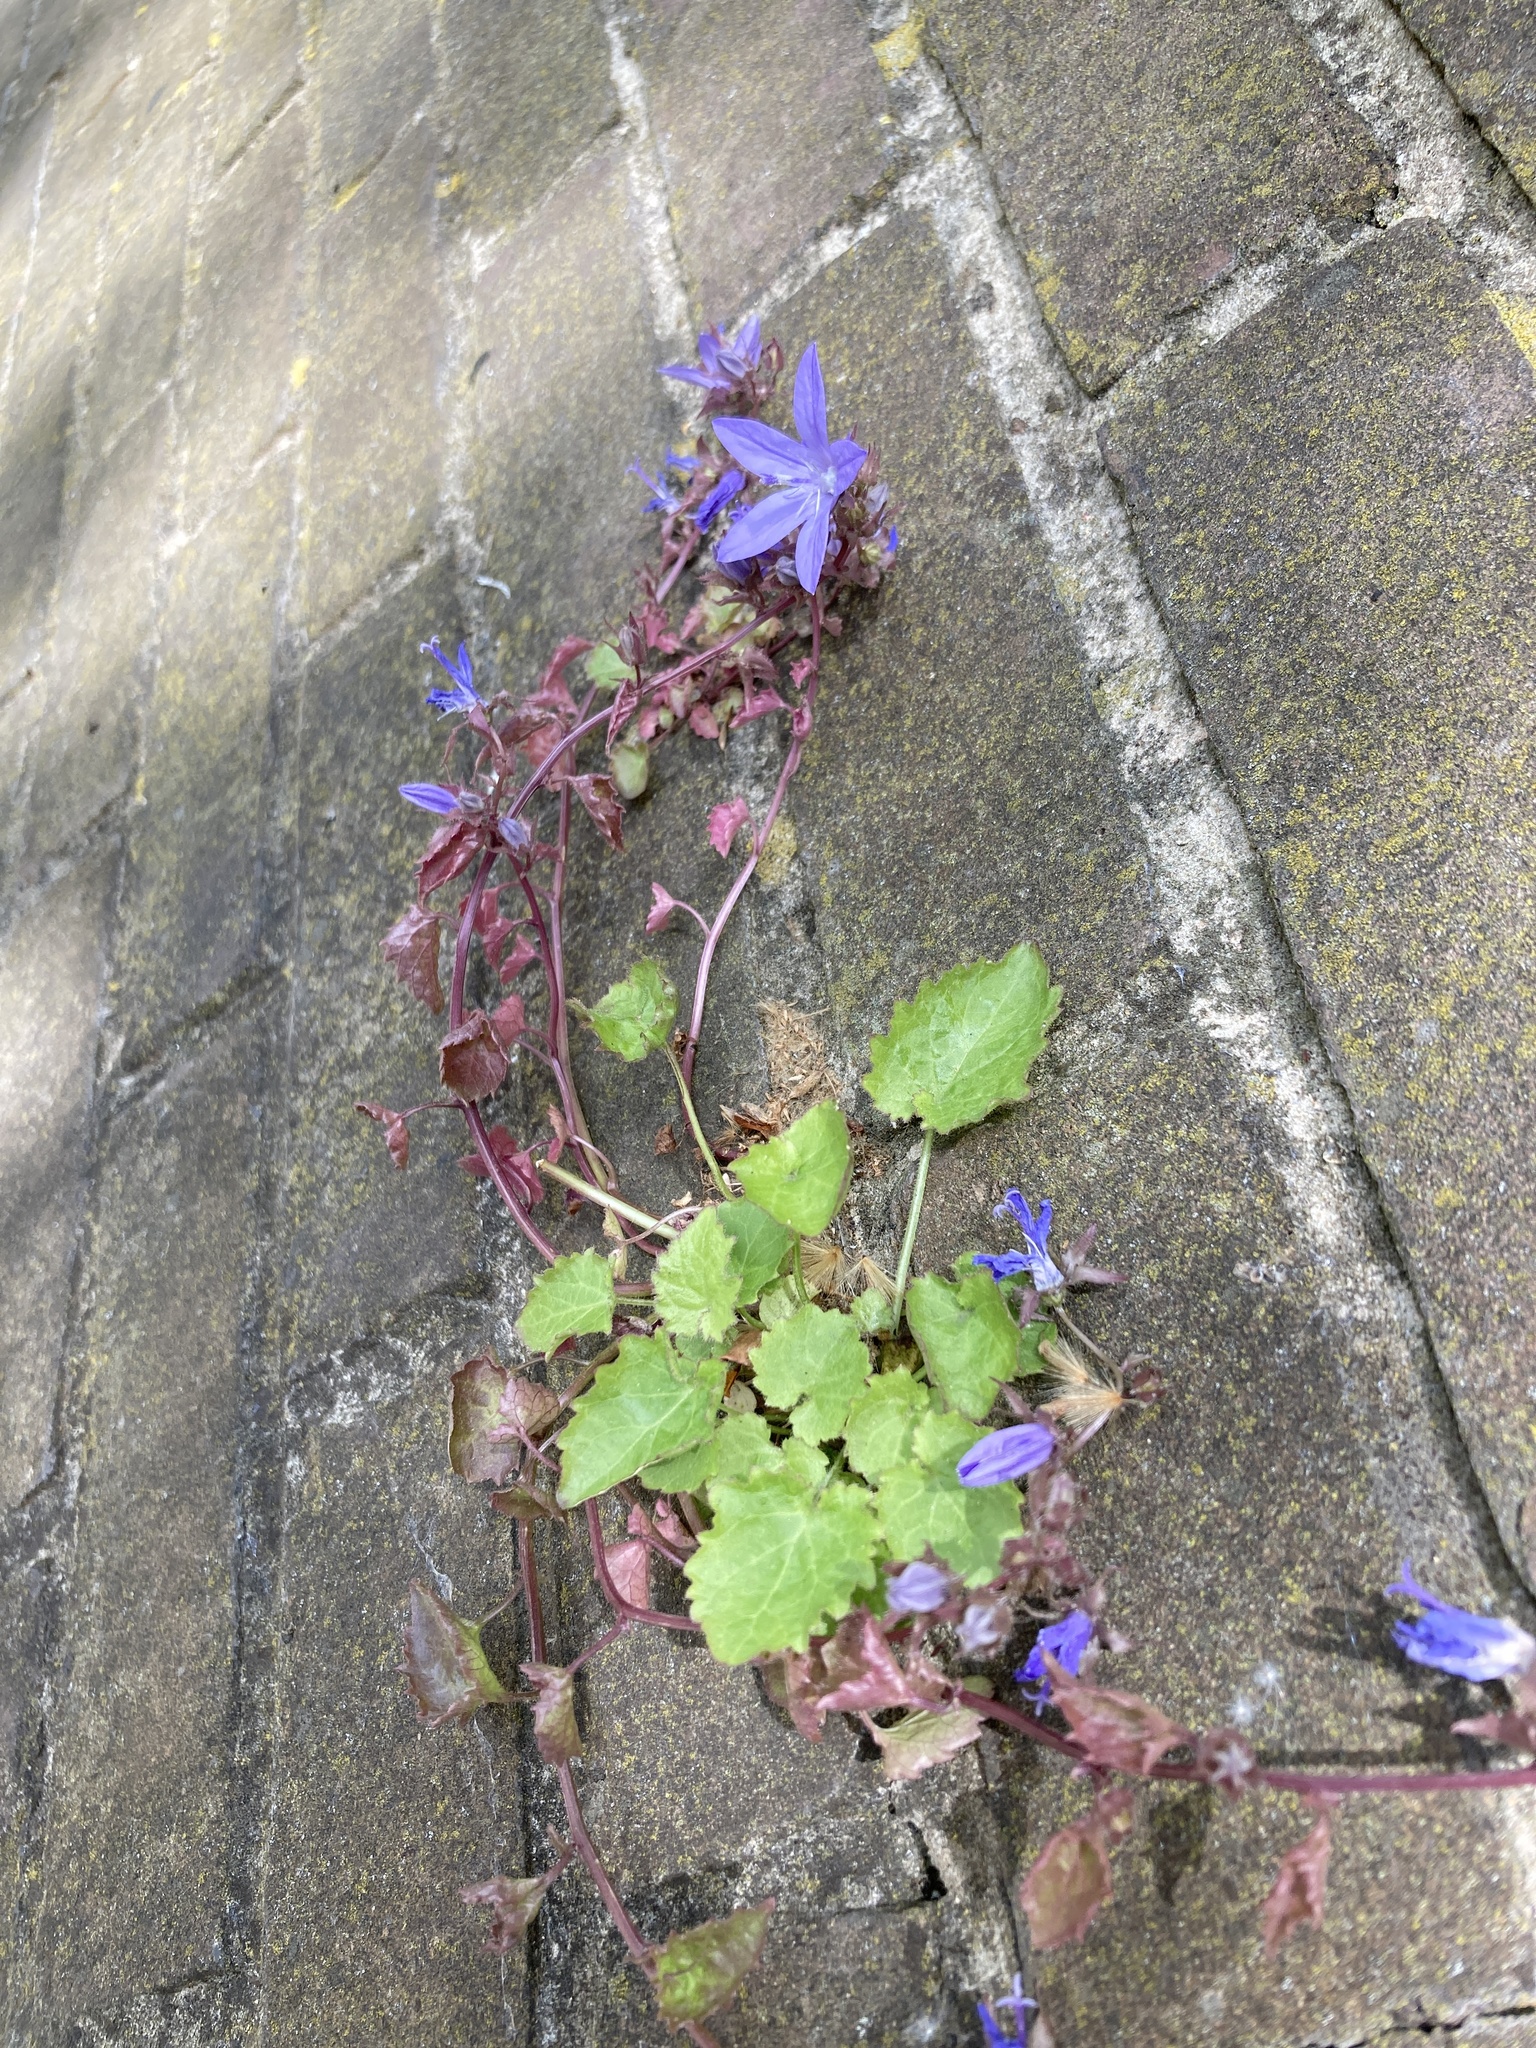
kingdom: Plantae
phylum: Tracheophyta
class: Magnoliopsida
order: Asterales
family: Campanulaceae
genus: Campanula
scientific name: Campanula poscharskyana
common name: Trailing bellflower
